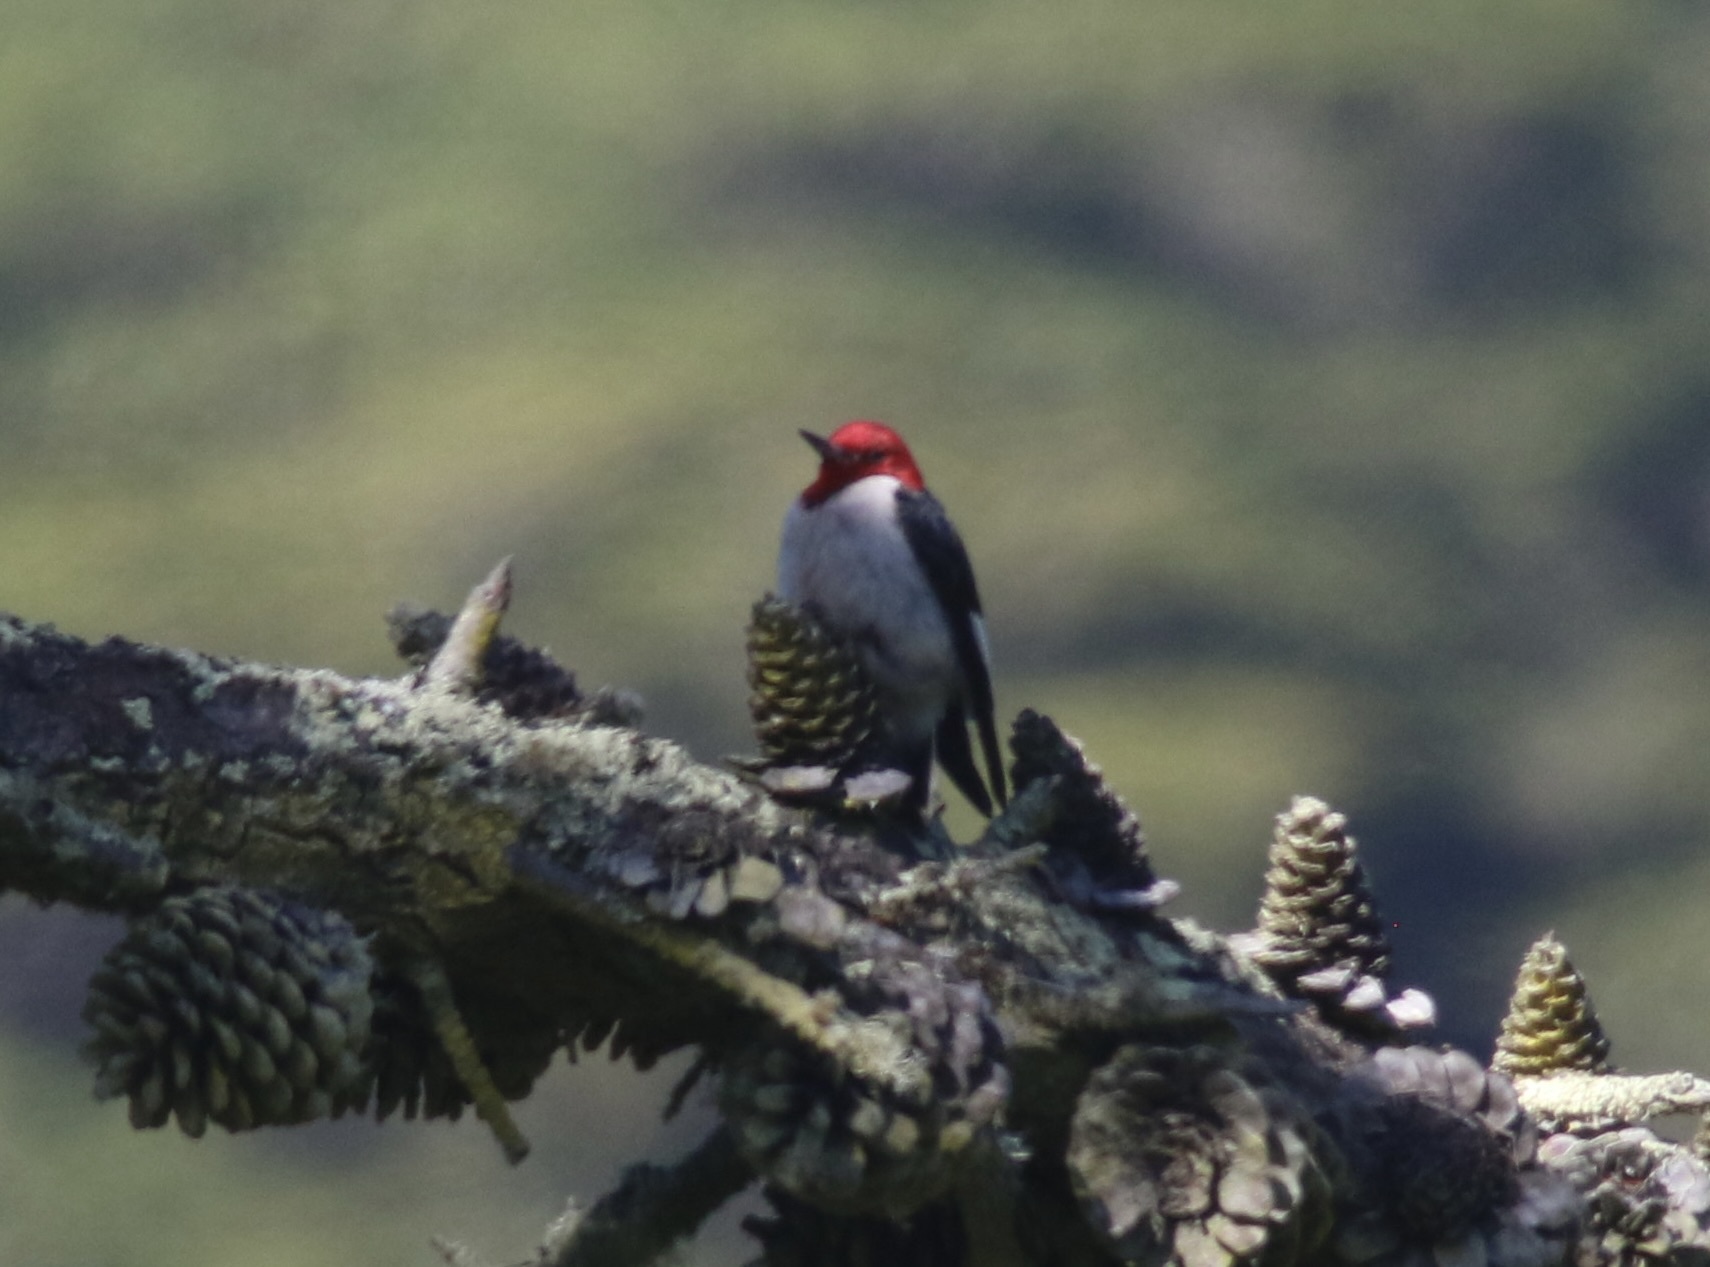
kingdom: Animalia
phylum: Chordata
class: Aves
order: Piciformes
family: Picidae
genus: Melanerpes
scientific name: Melanerpes erythrocephalus
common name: Red-headed woodpecker
